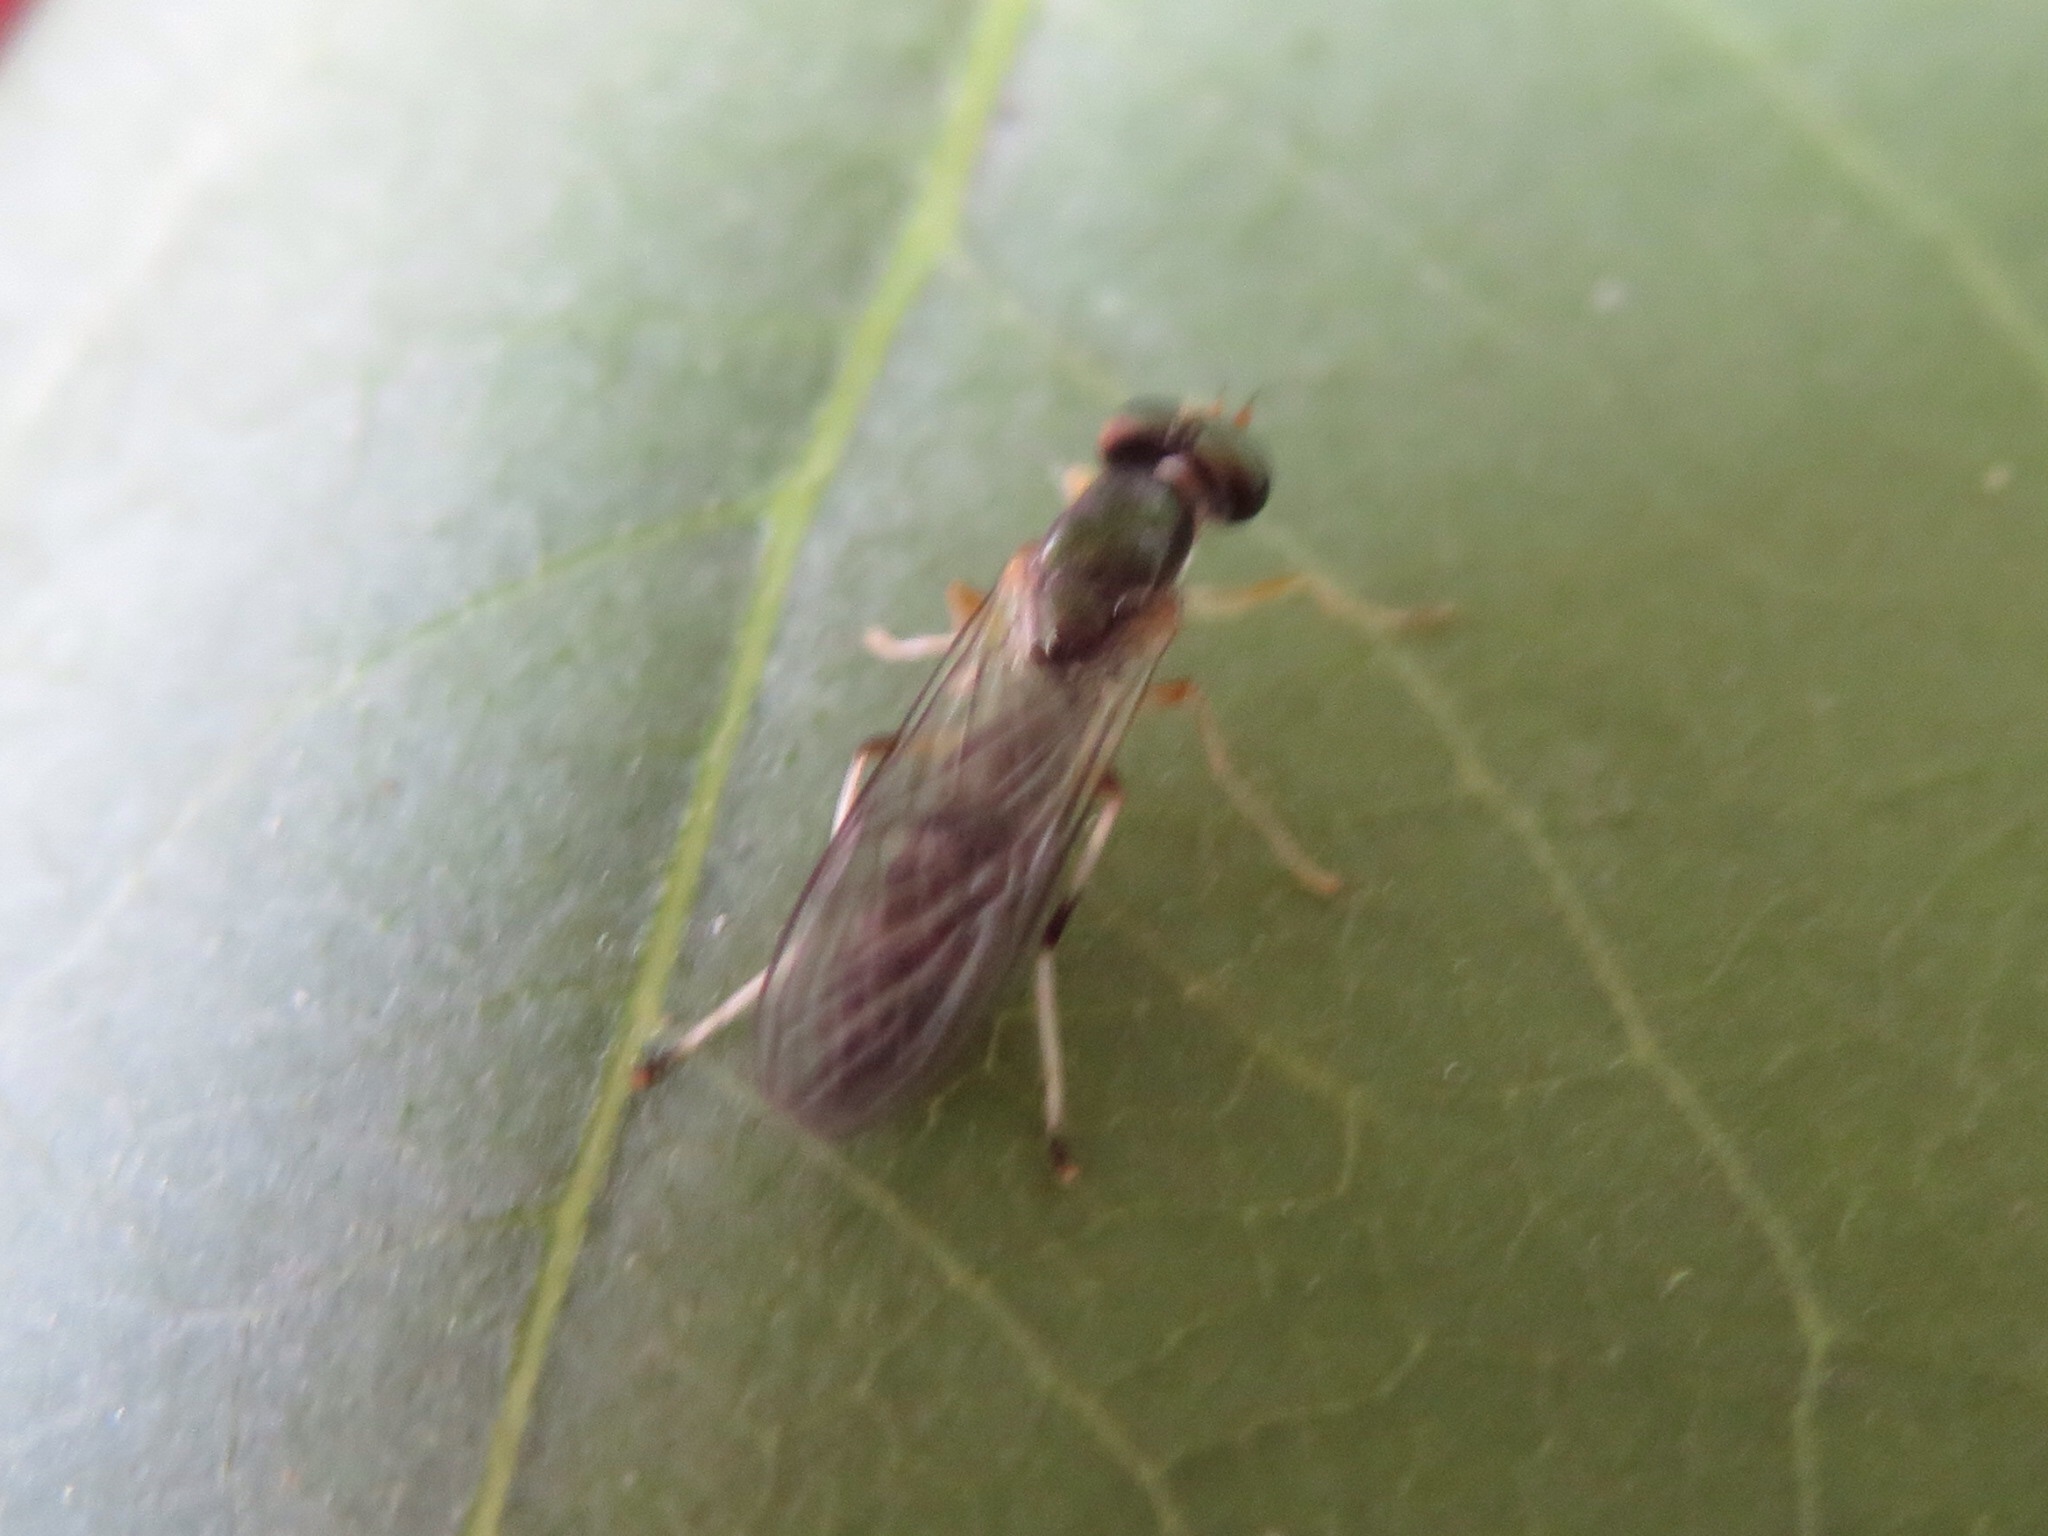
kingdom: Animalia
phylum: Arthropoda
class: Insecta
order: Diptera
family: Stratiomyidae
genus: Merosargus
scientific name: Merosargus caeruleifrons
